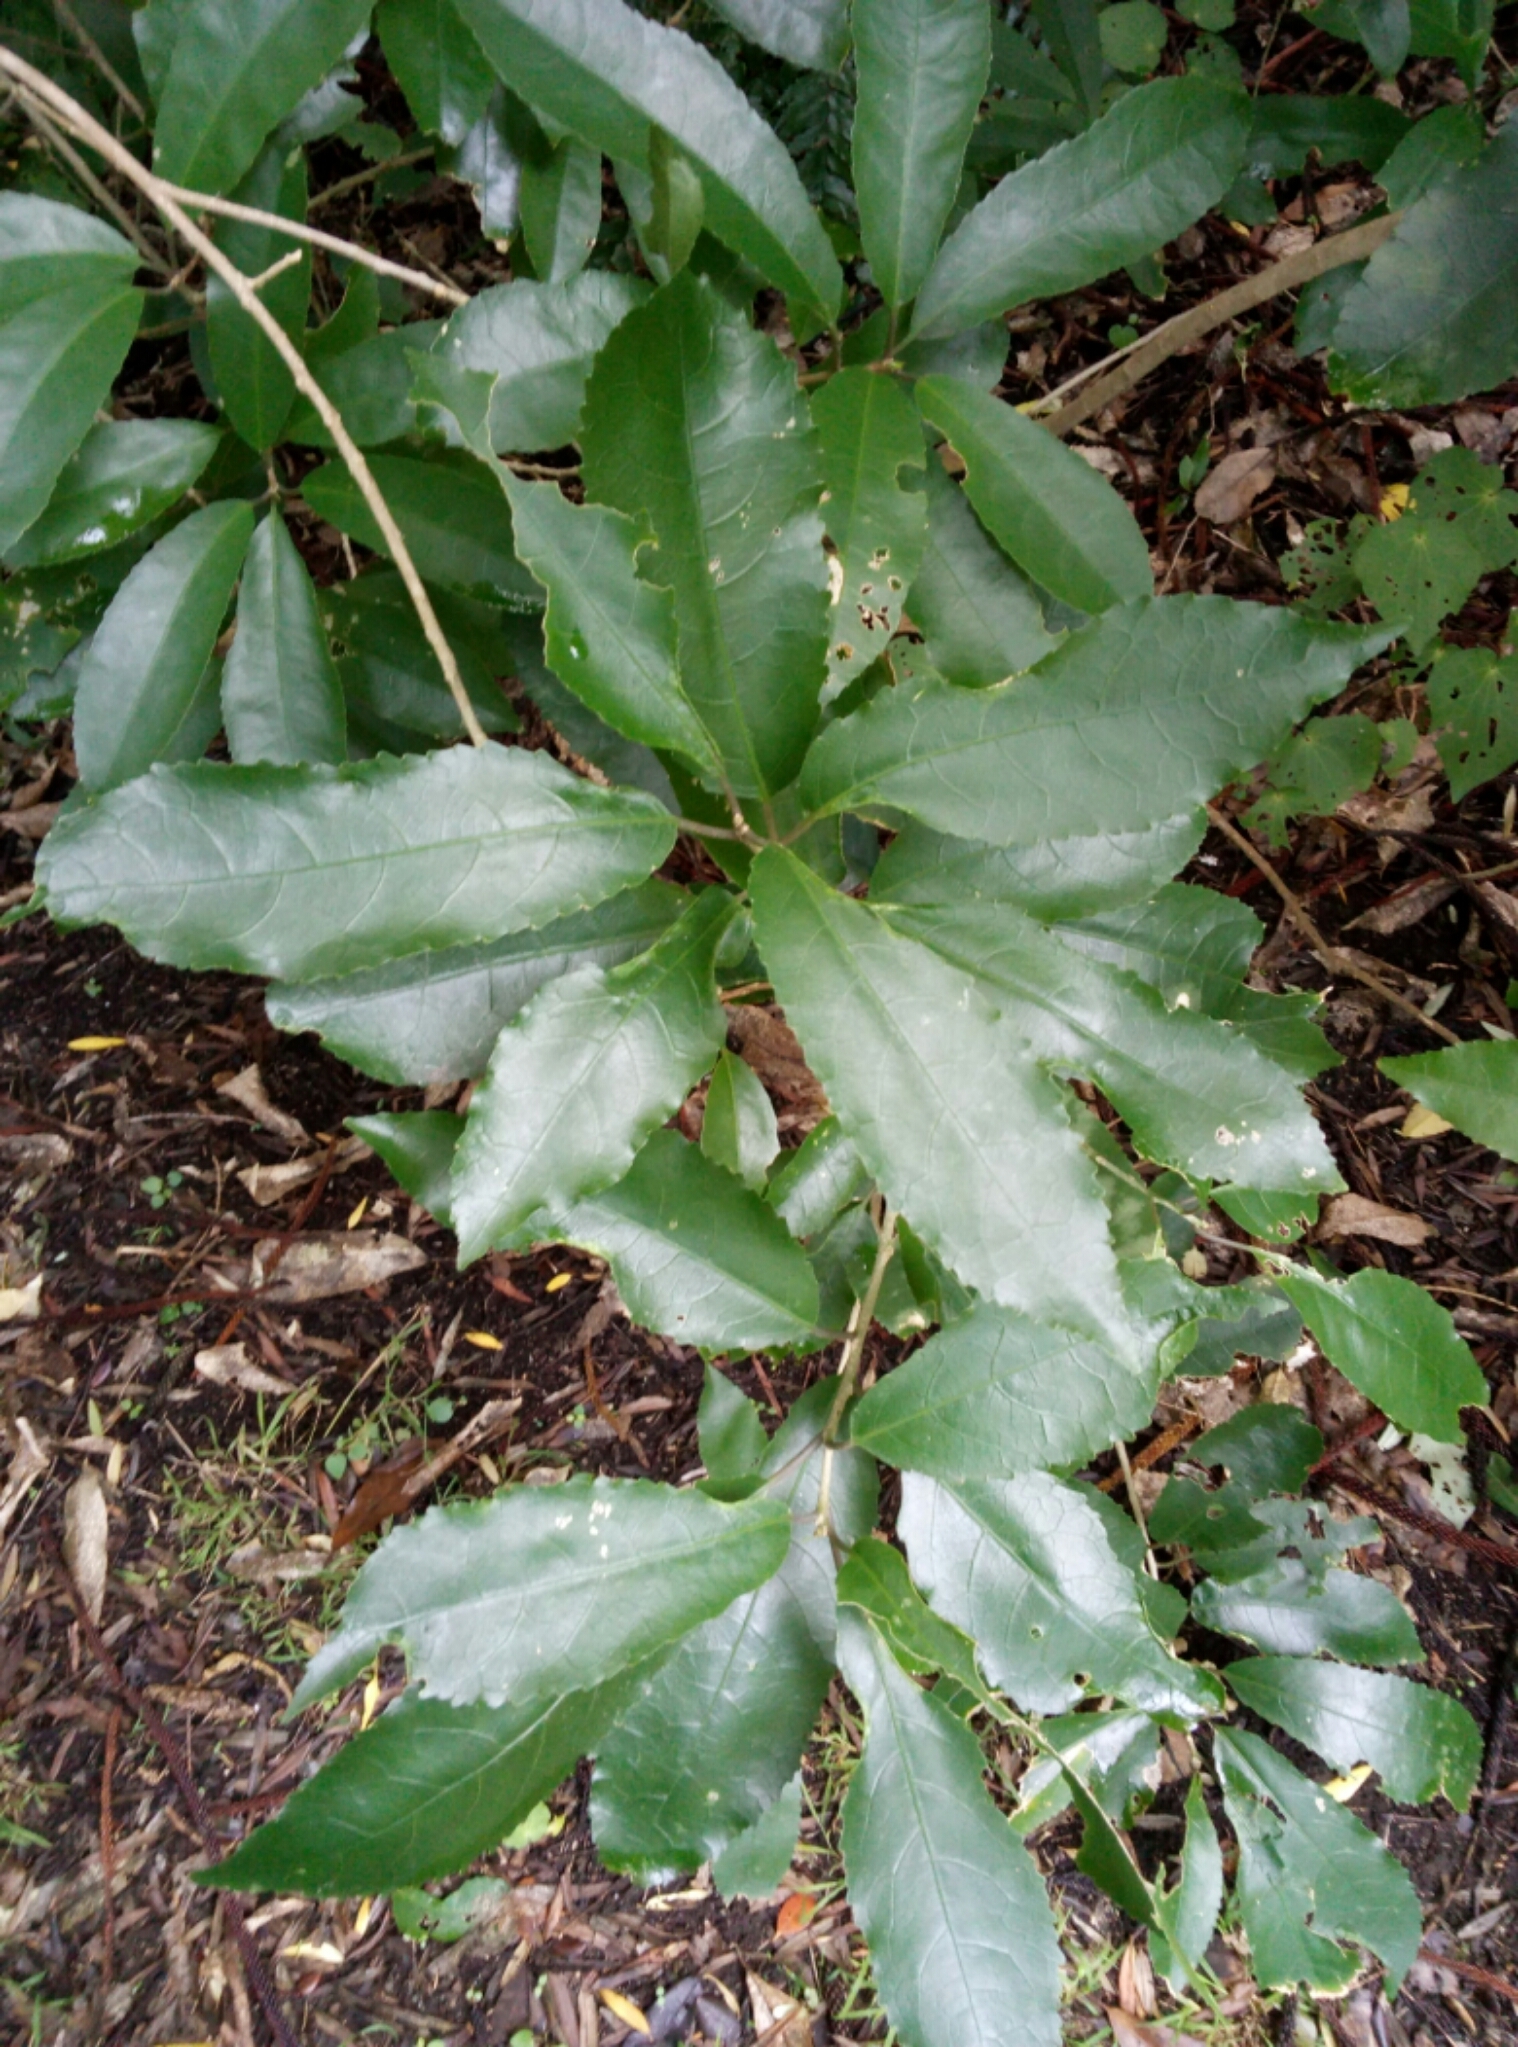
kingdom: Plantae
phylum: Tracheophyta
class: Magnoliopsida
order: Malpighiales
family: Violaceae
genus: Melicytus
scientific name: Melicytus ramiflorus
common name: Mahoe
